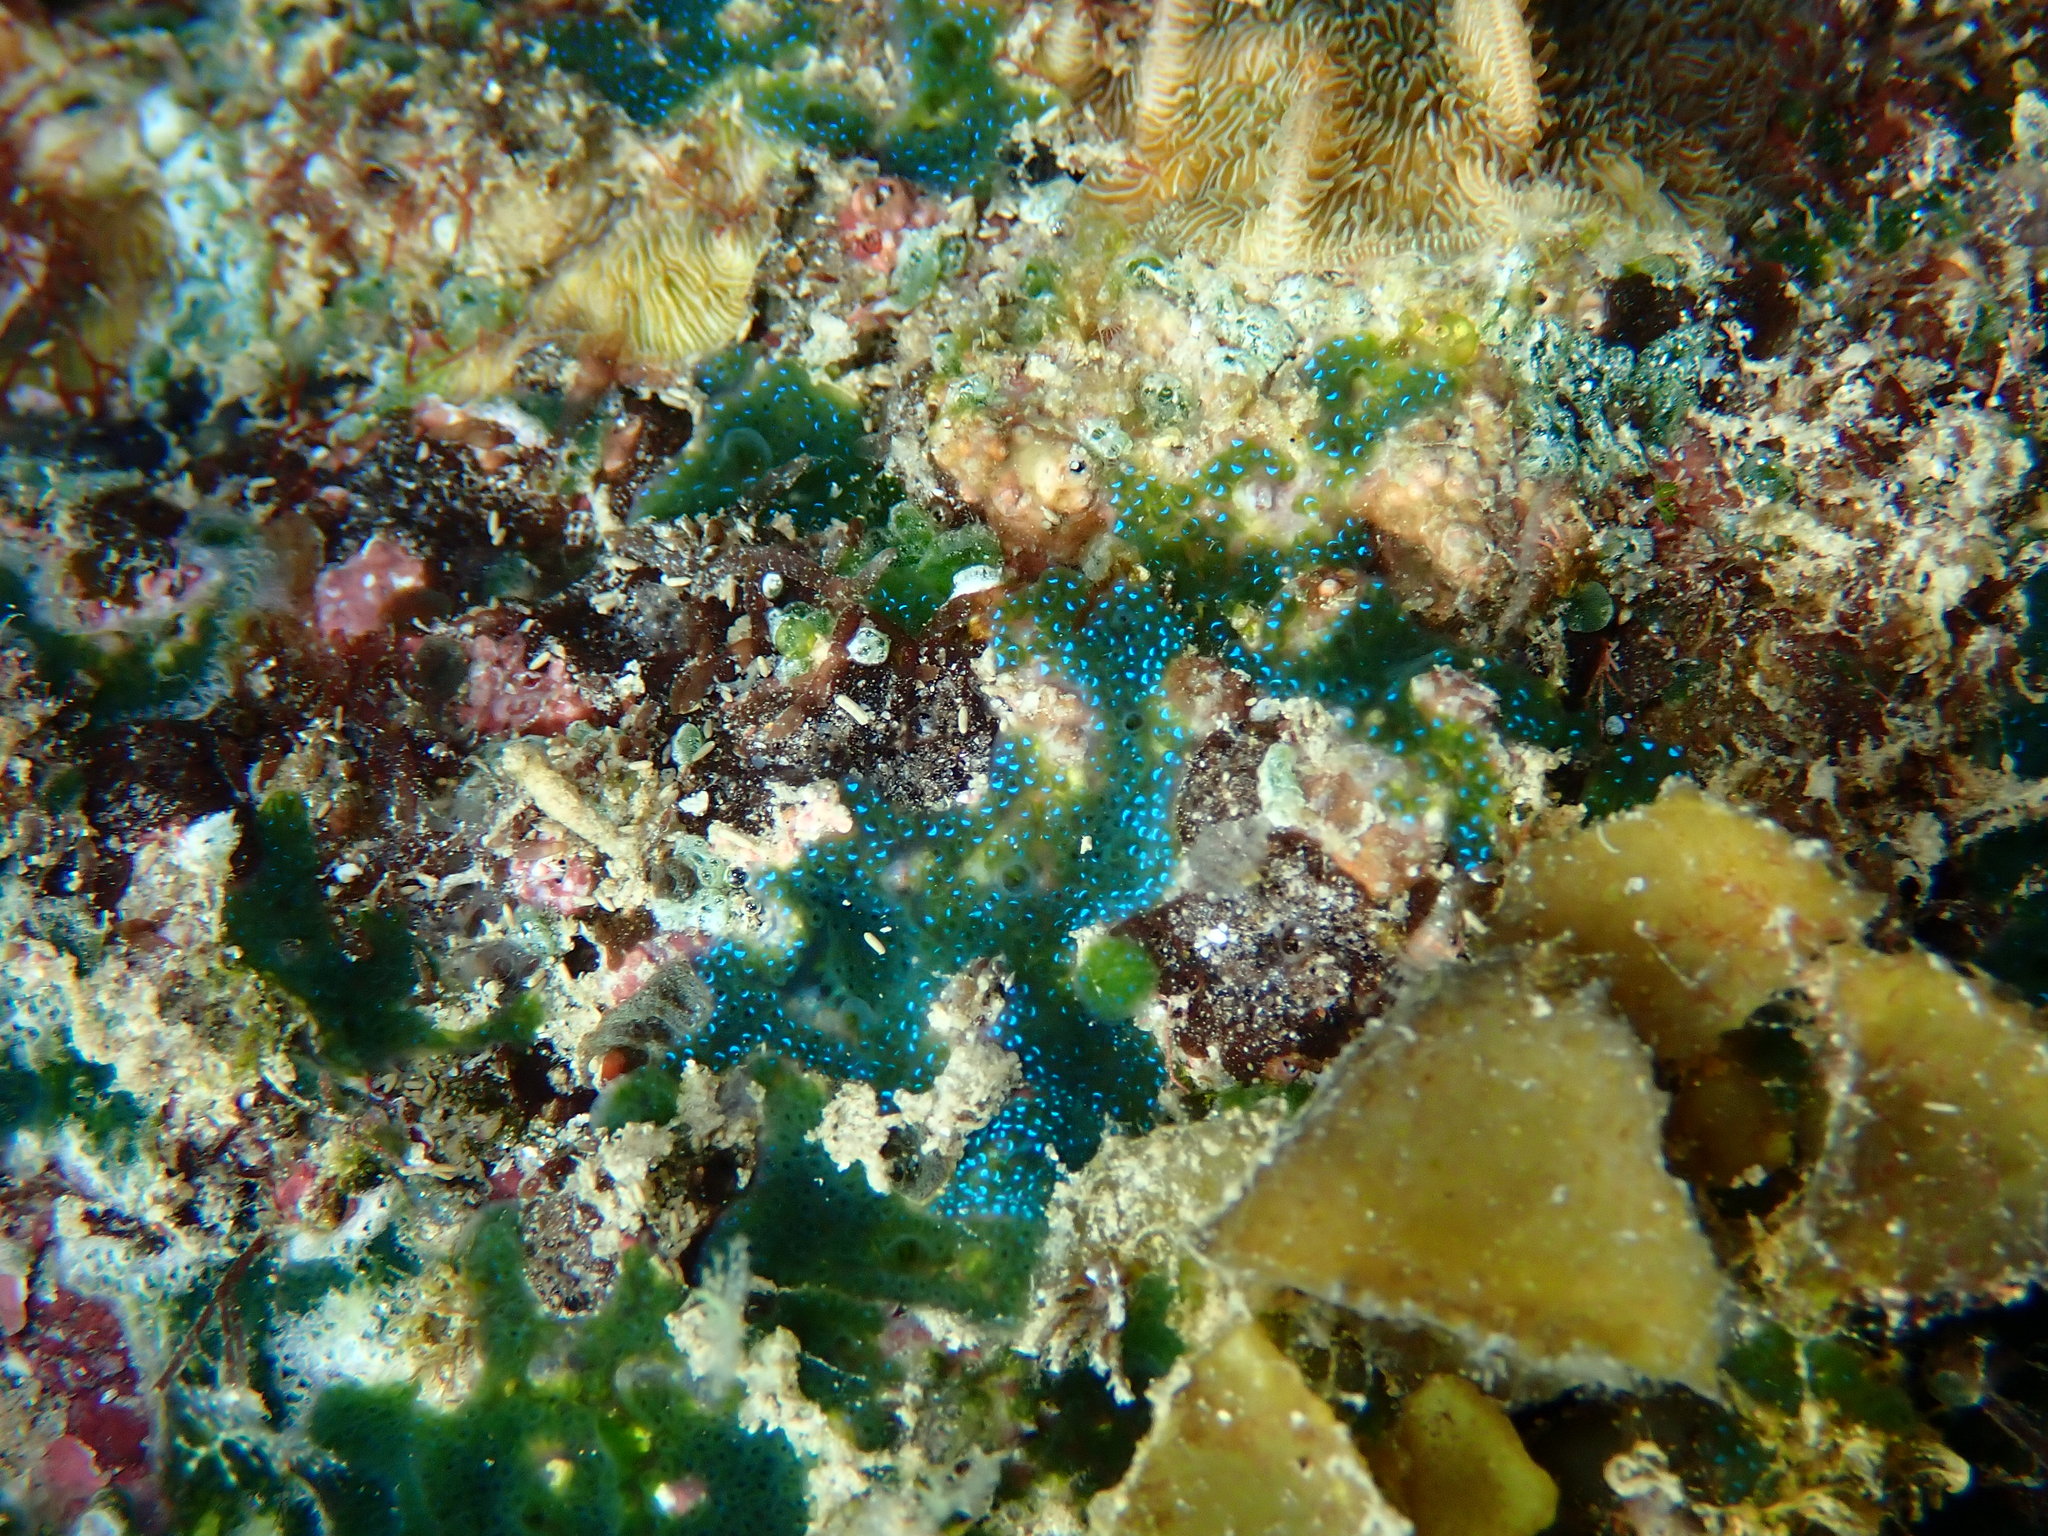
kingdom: Animalia
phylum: Chordata
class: Ascidiacea
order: Aplousobranchia
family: Didemnidae
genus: Diplosoma
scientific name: Diplosoma virens
